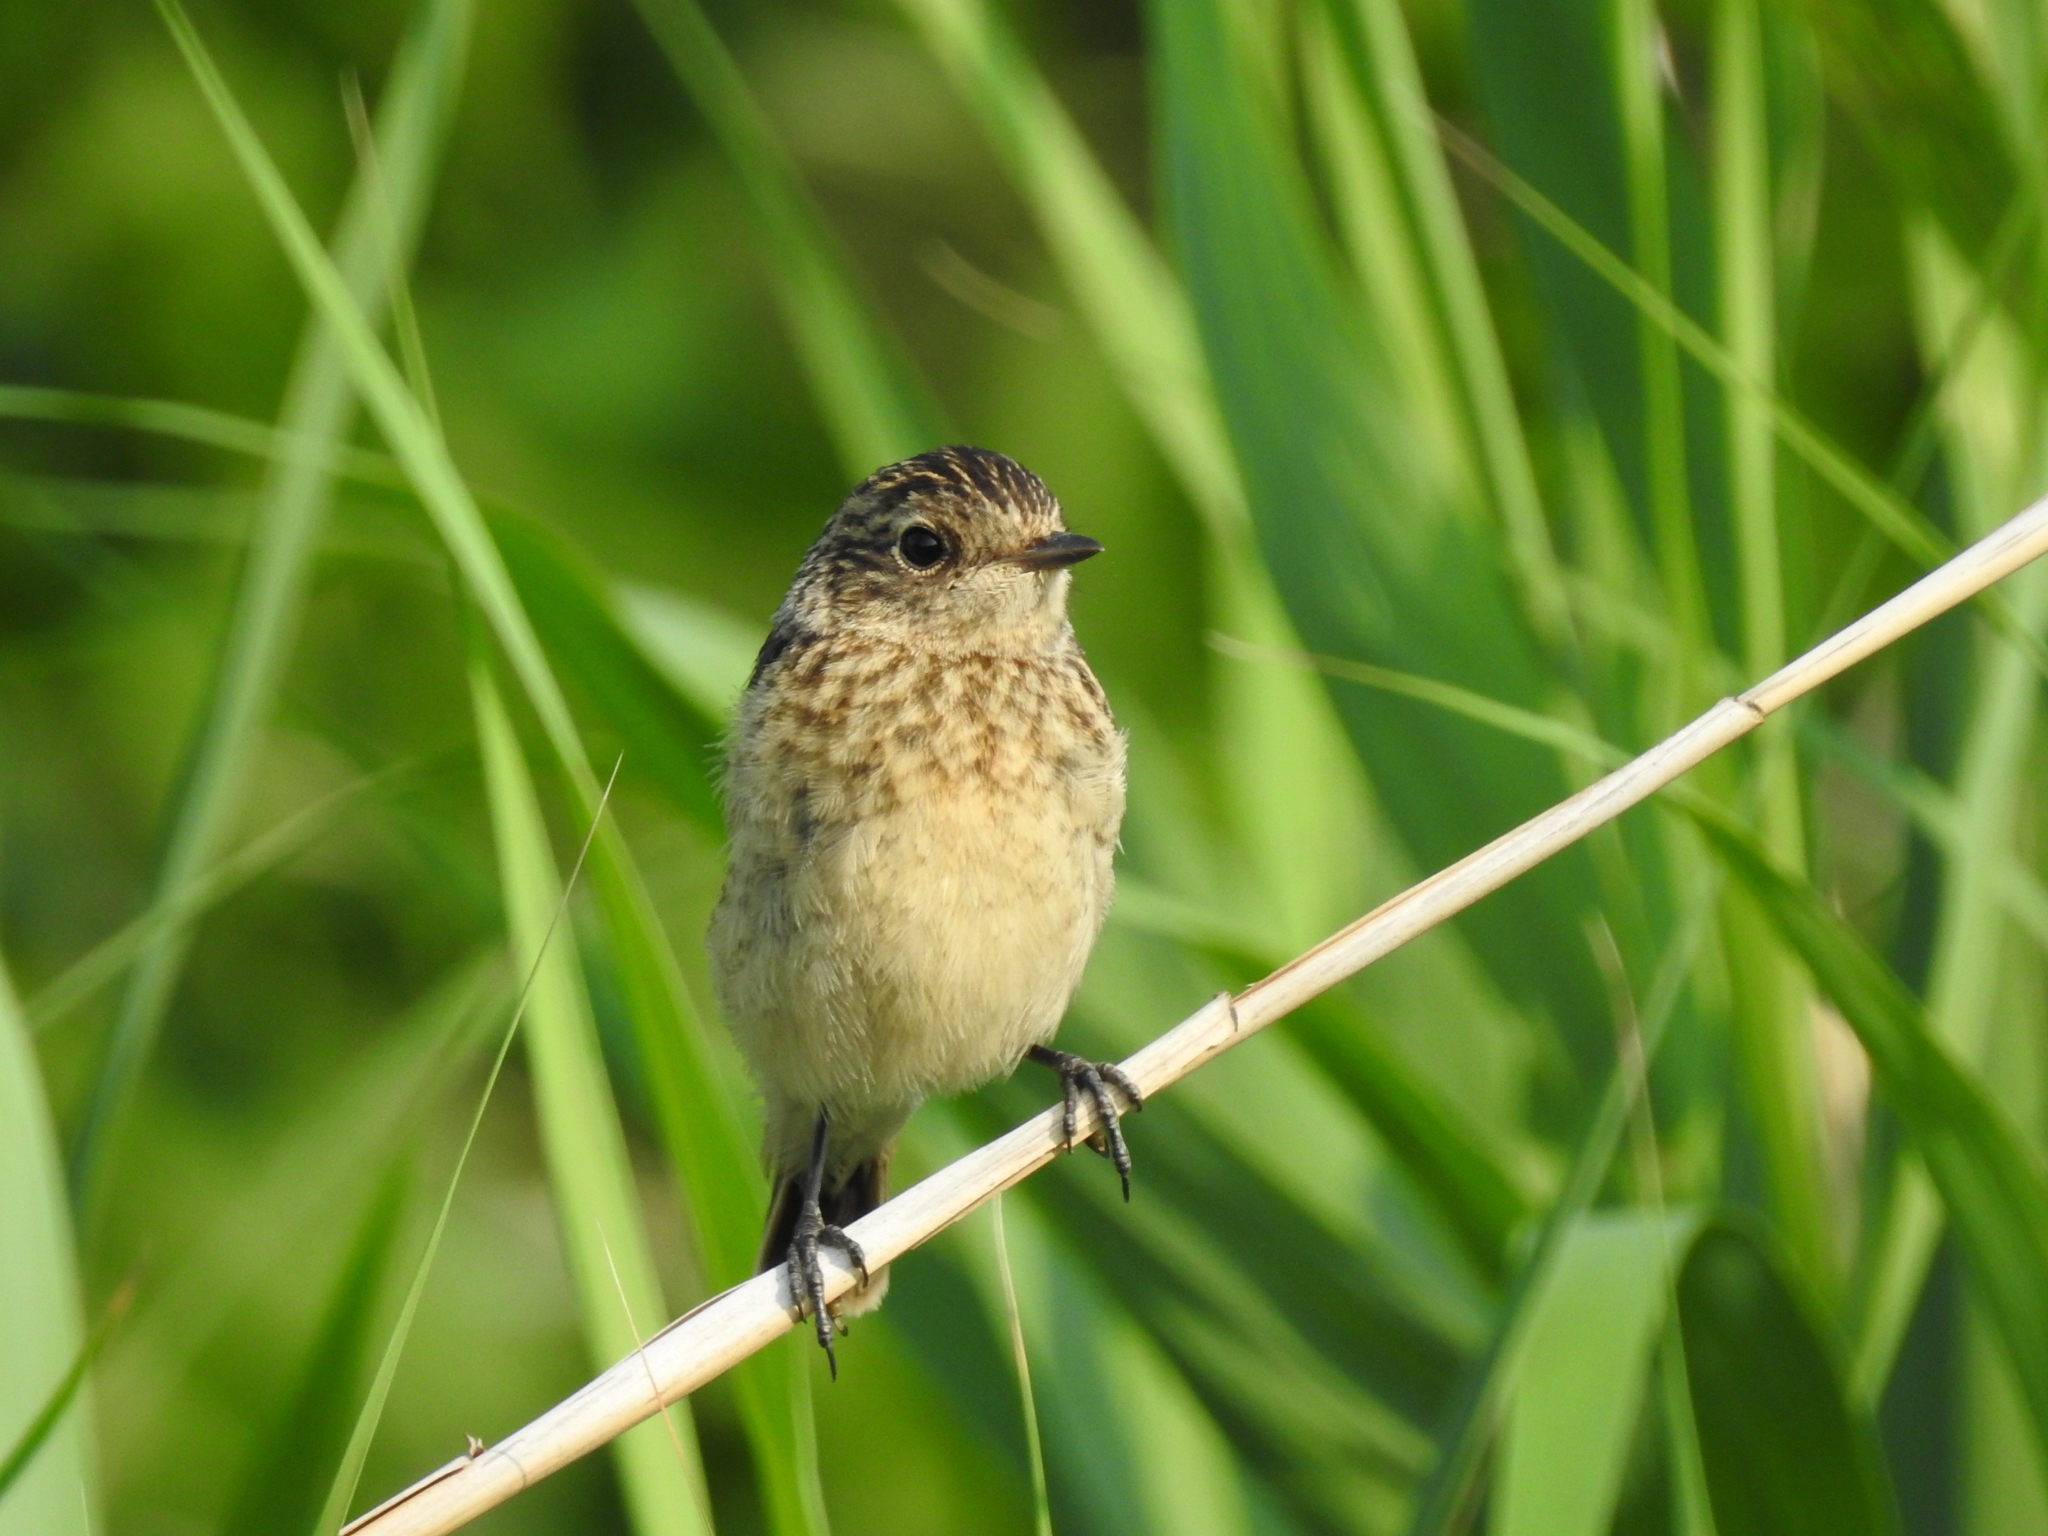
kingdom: Animalia
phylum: Chordata
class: Aves
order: Passeriformes
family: Muscicapidae
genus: Saxicola
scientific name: Saxicola maurus
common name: Siberian stonechat
